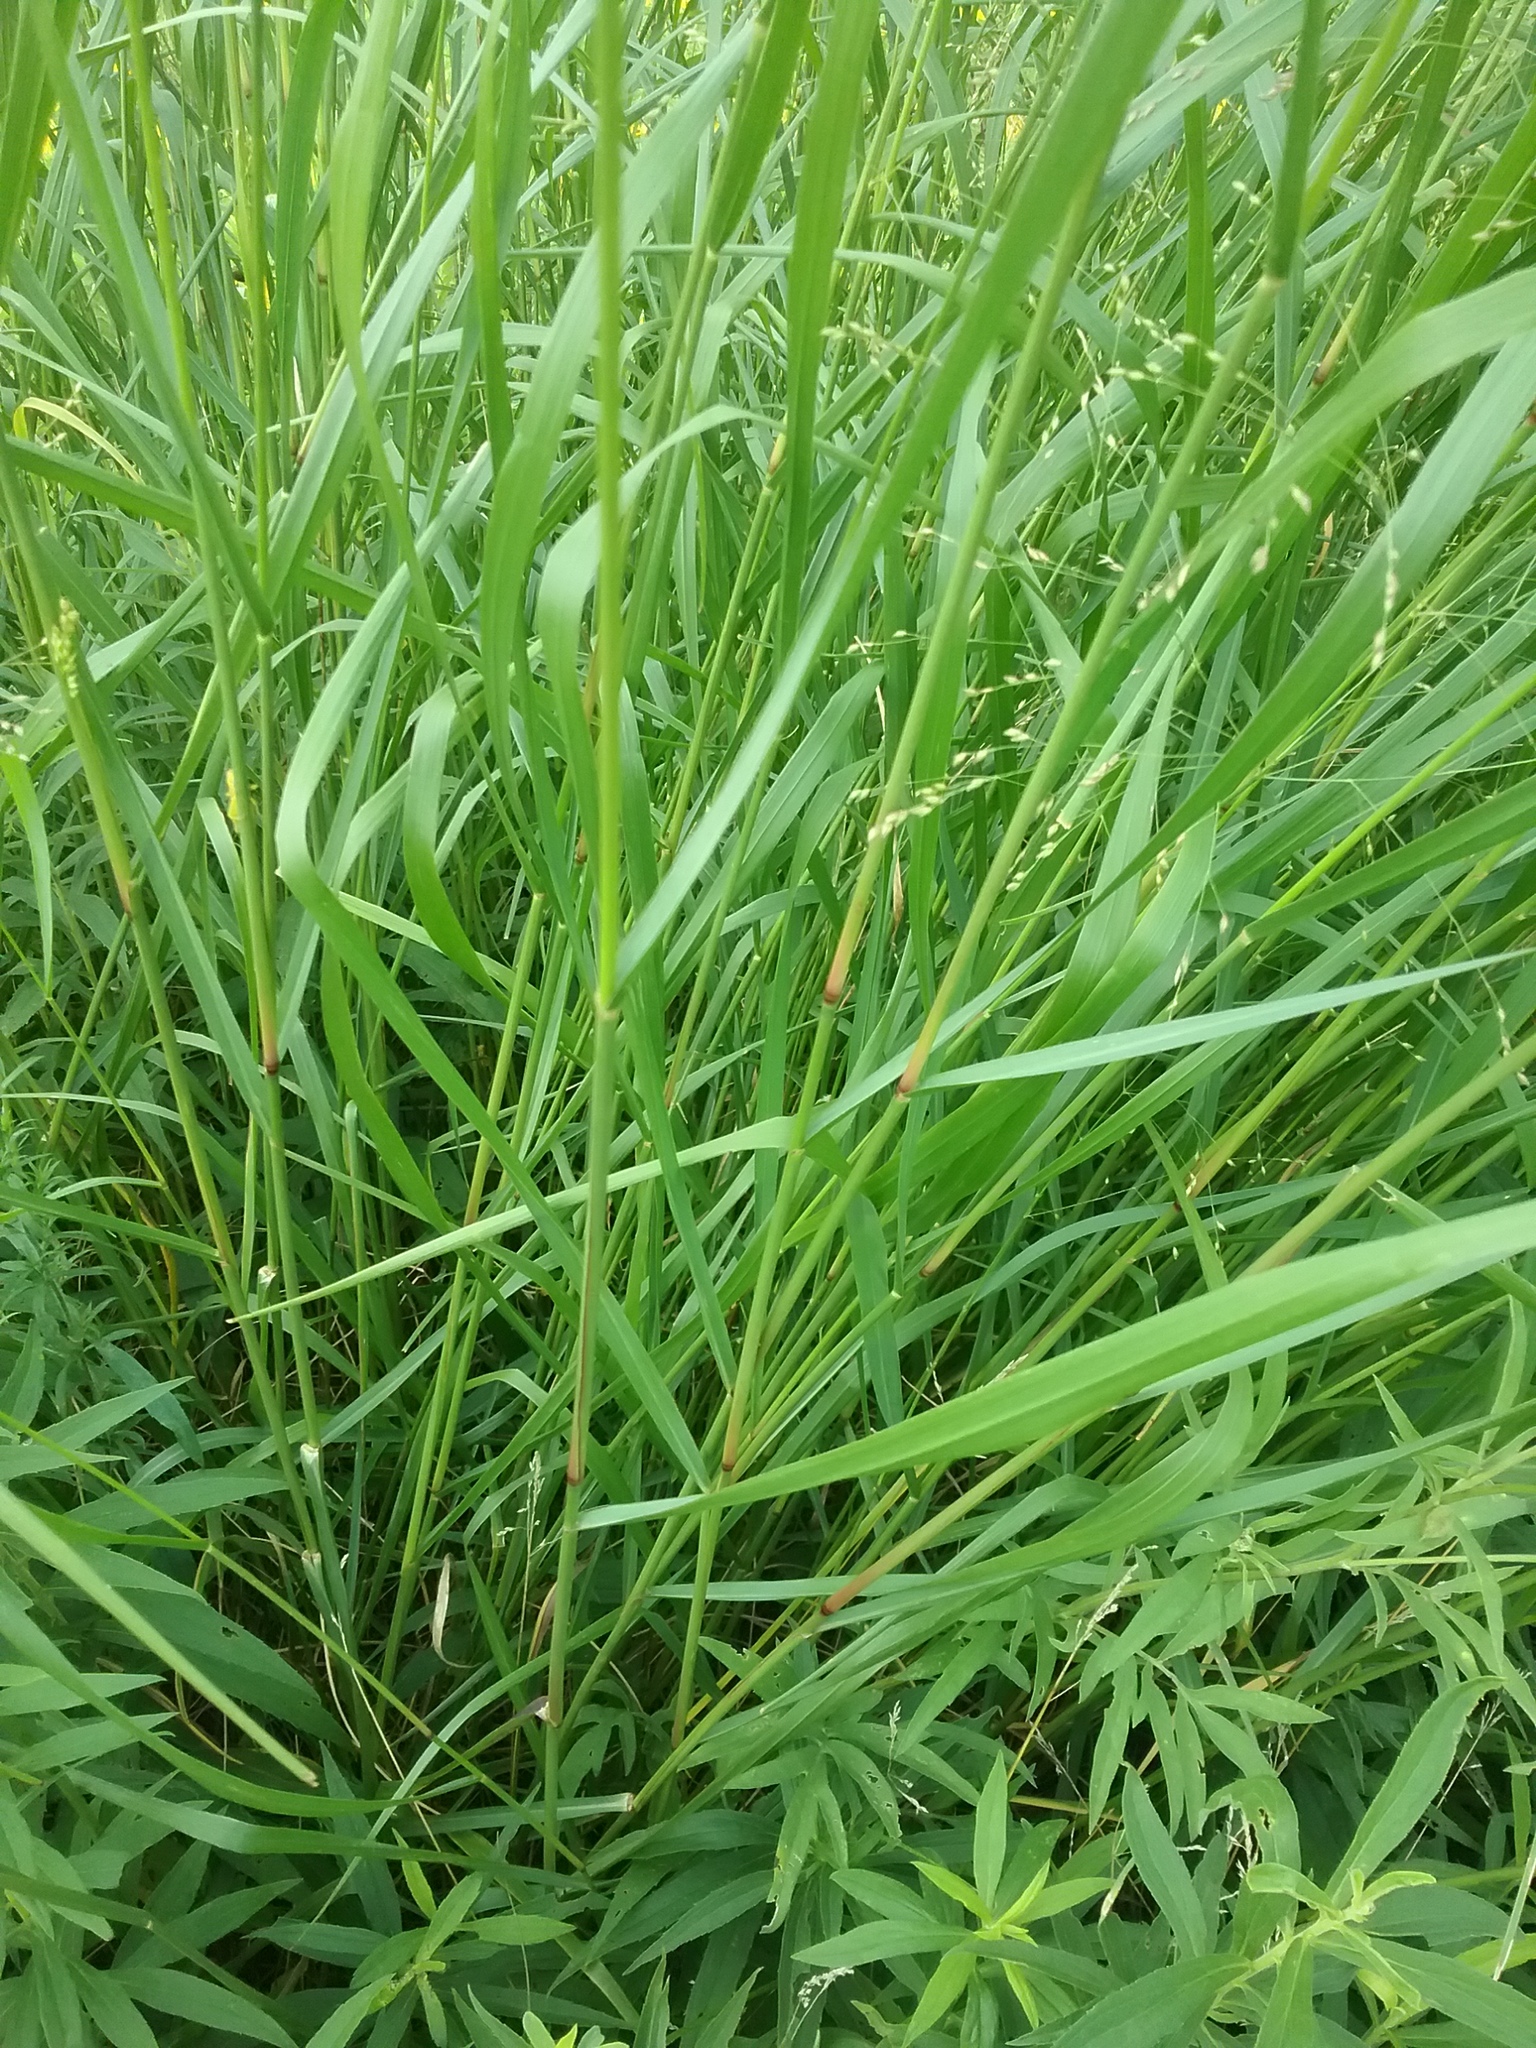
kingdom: Plantae
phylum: Tracheophyta
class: Liliopsida
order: Poales
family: Poaceae
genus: Panicum
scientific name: Panicum virgatum
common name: Switchgrass
